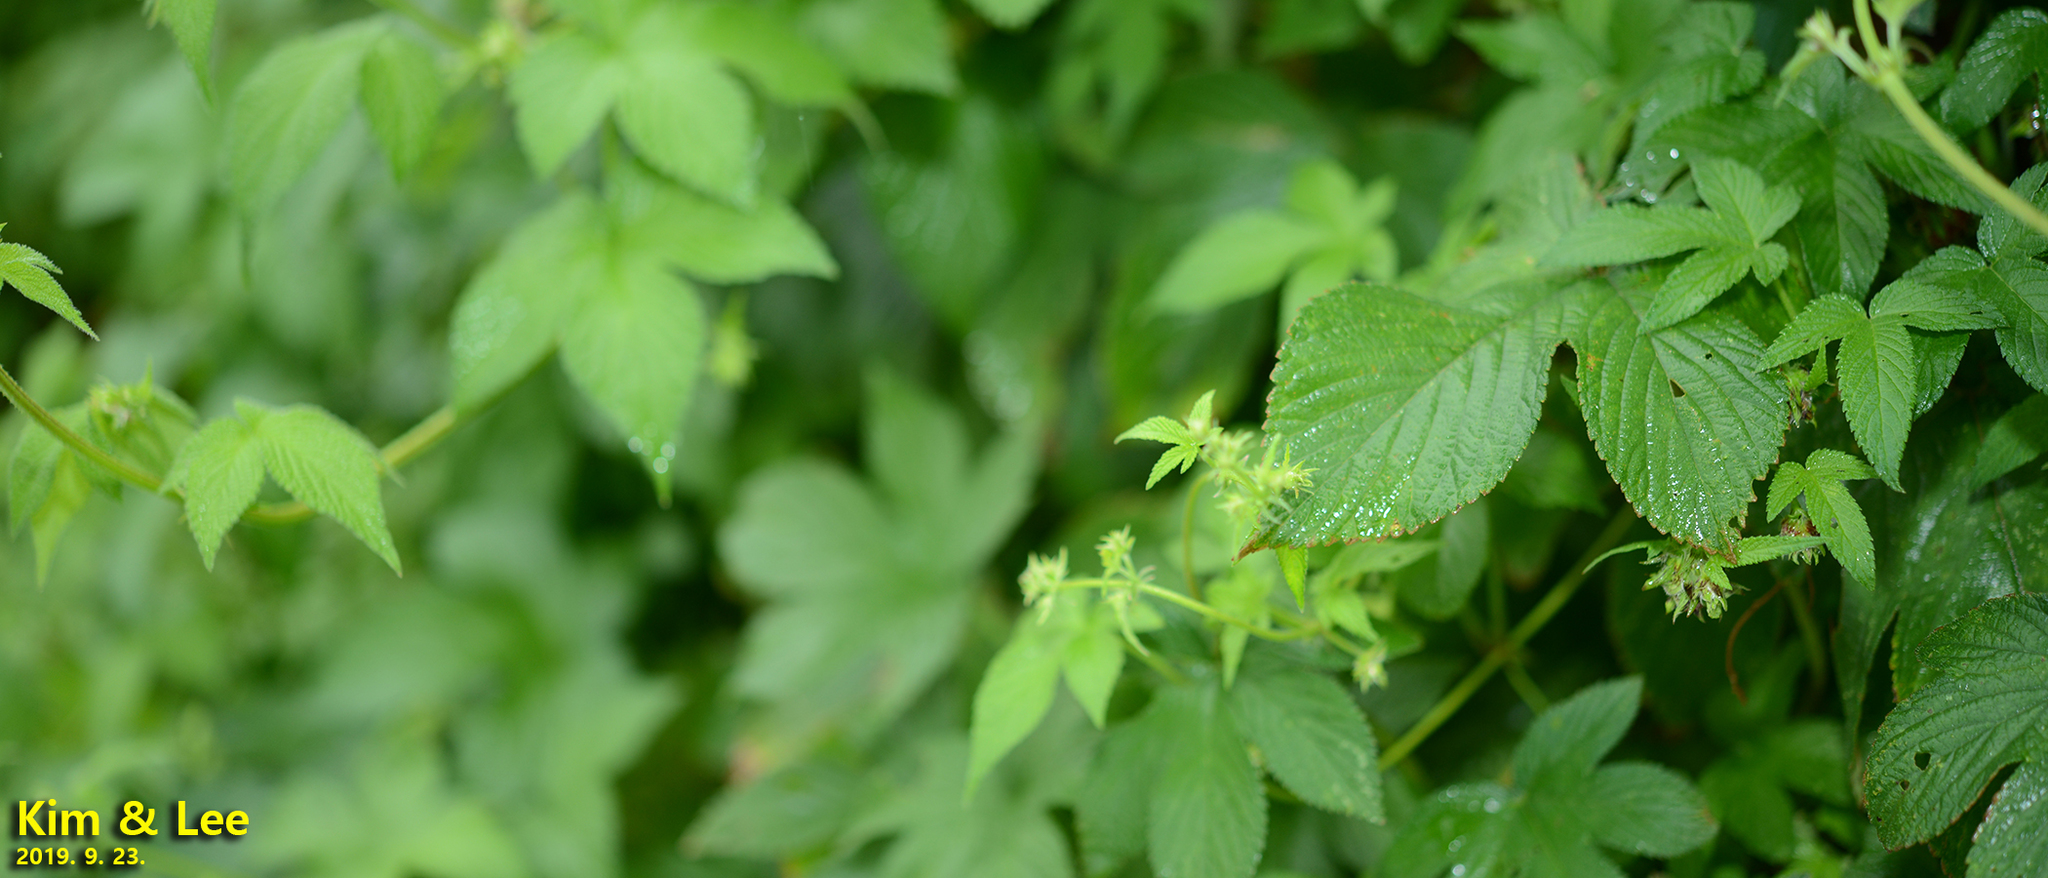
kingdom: Plantae
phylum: Tracheophyta
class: Magnoliopsida
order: Rosales
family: Cannabaceae
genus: Humulus
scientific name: Humulus scandens
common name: Japanese hop
